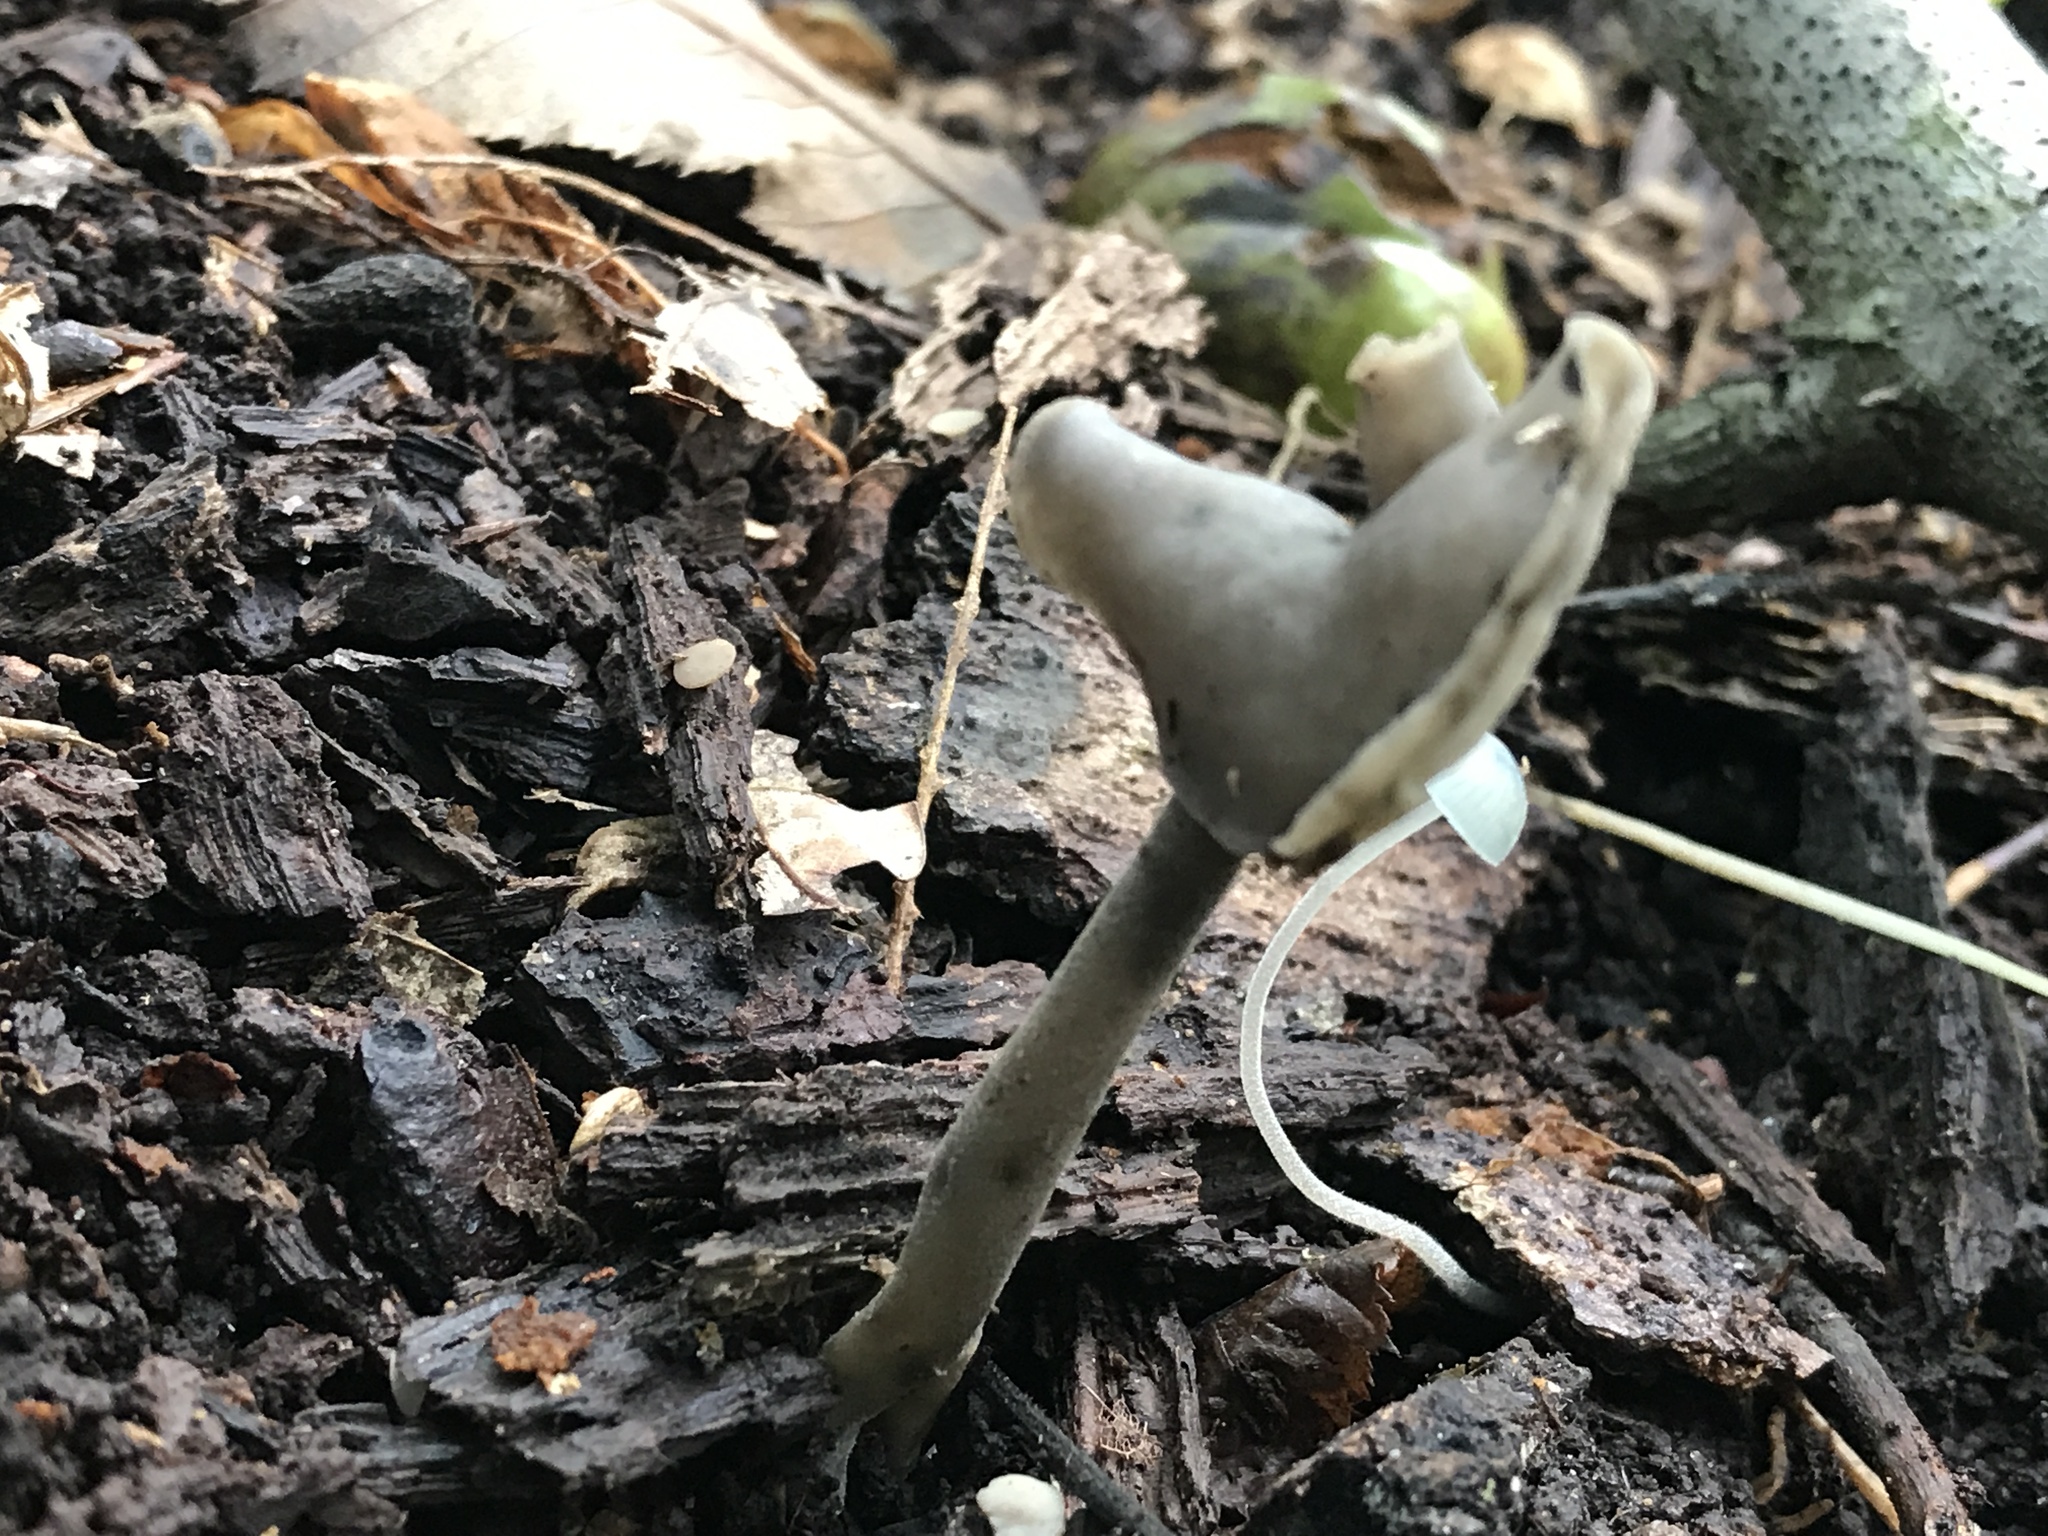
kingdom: Fungi
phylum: Ascomycota
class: Pezizomycetes
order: Pezizales
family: Helvellaceae
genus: Helvella
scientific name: Helvella atra
